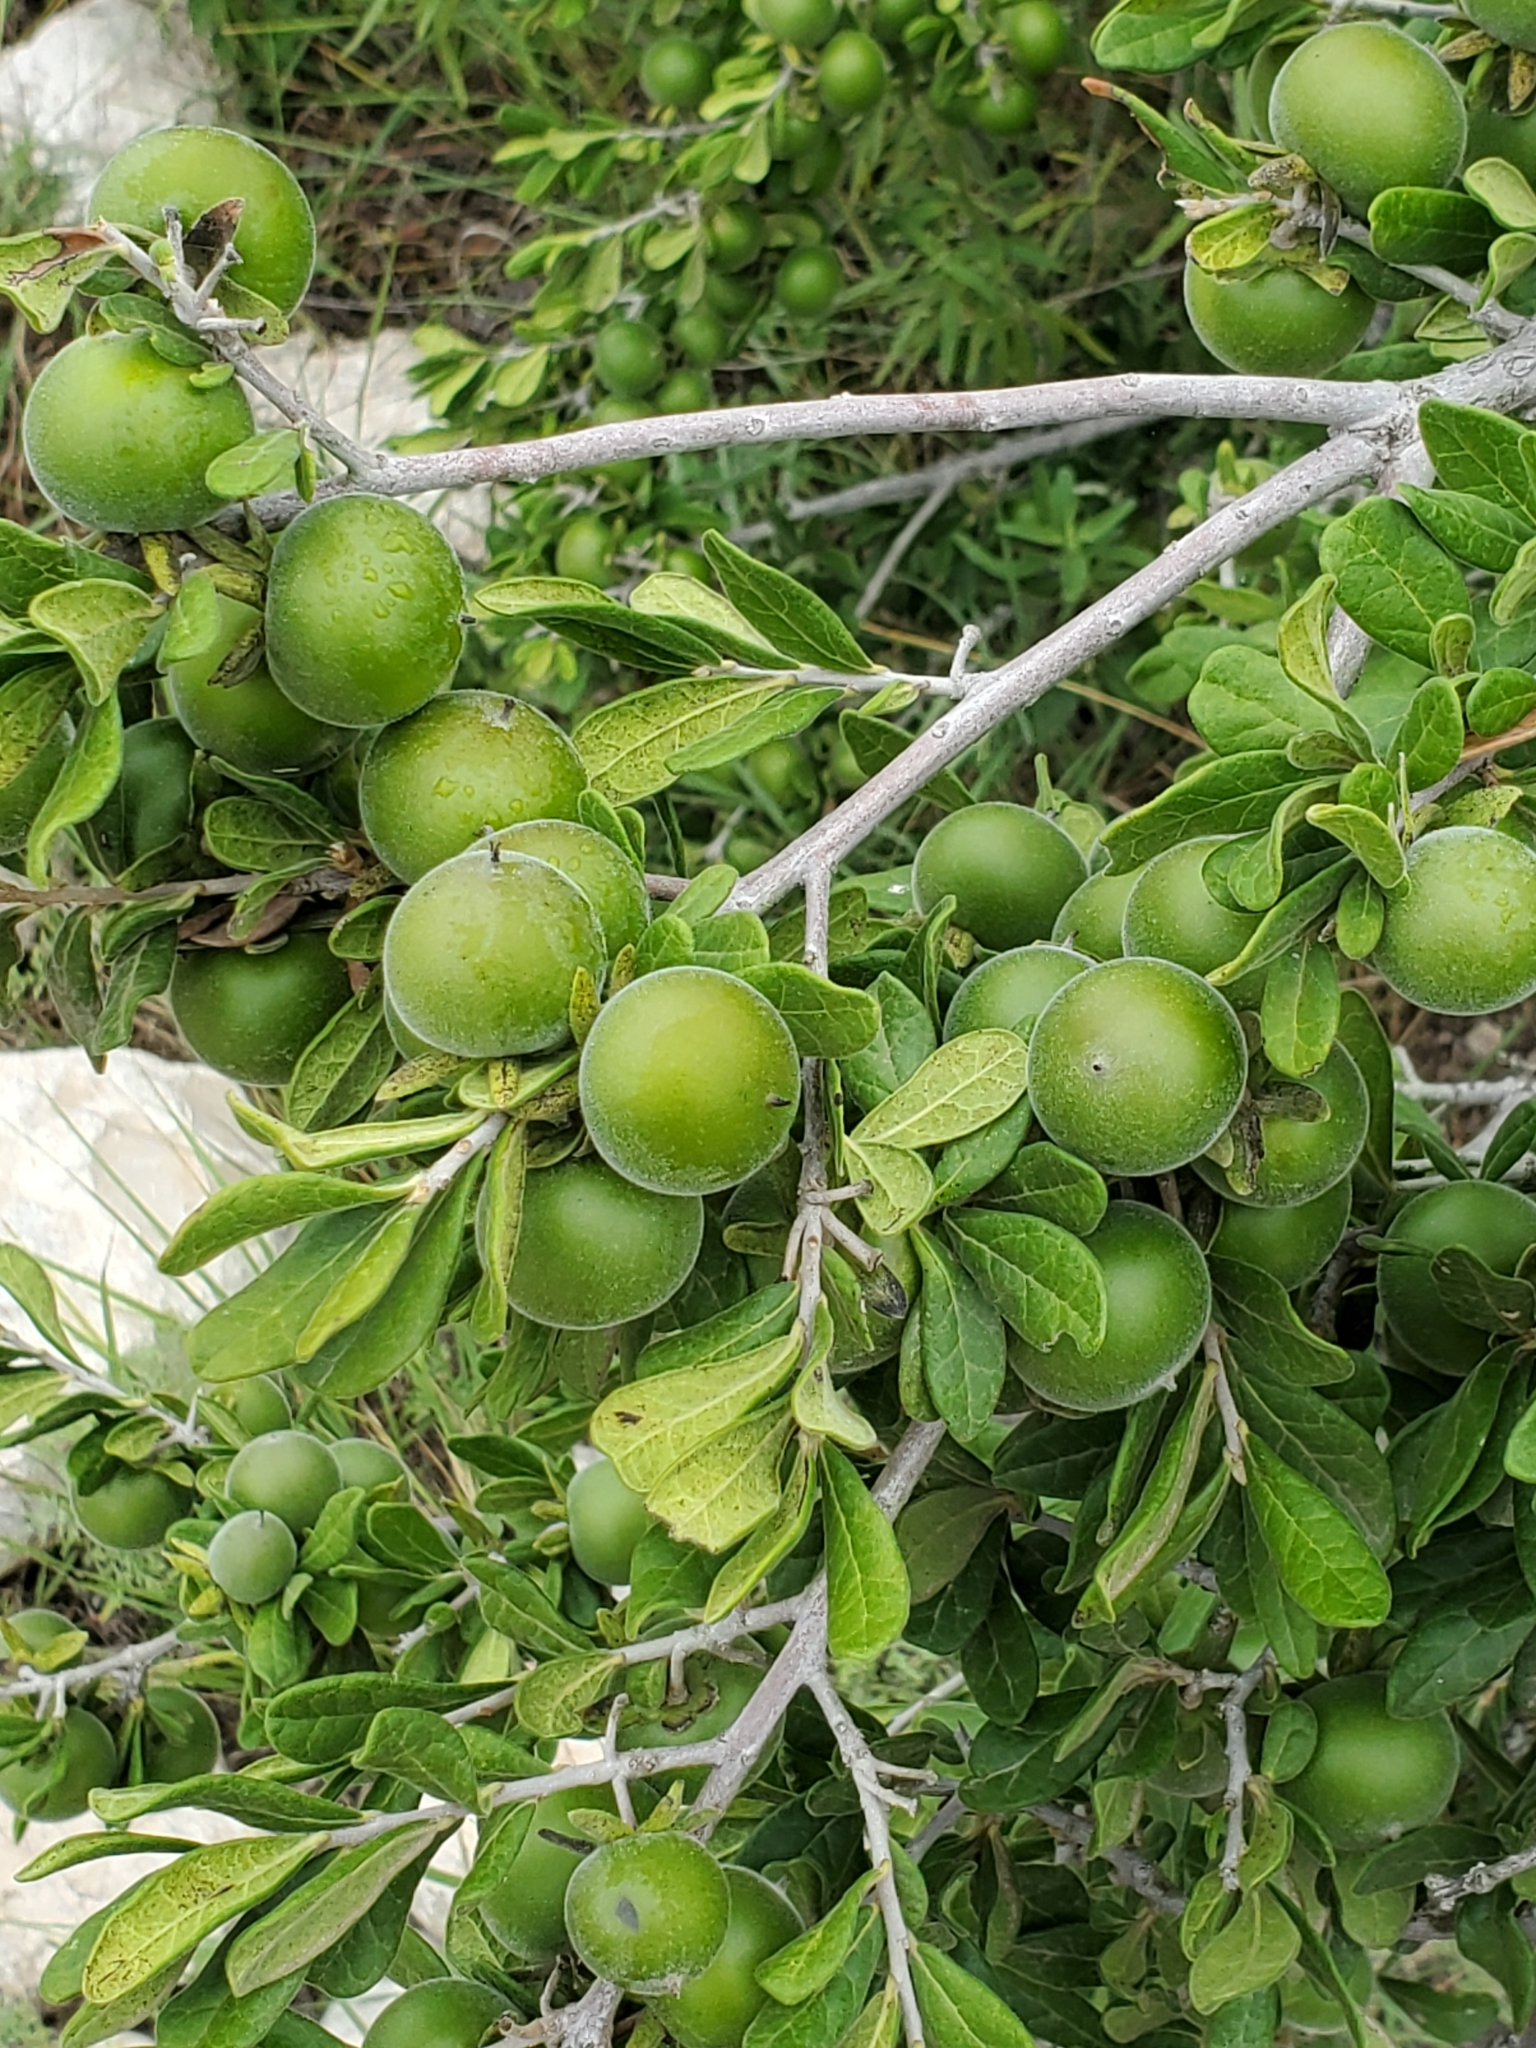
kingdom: Plantae
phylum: Tracheophyta
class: Magnoliopsida
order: Ericales
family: Ebenaceae
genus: Diospyros
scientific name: Diospyros texana
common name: Texas persimmon
